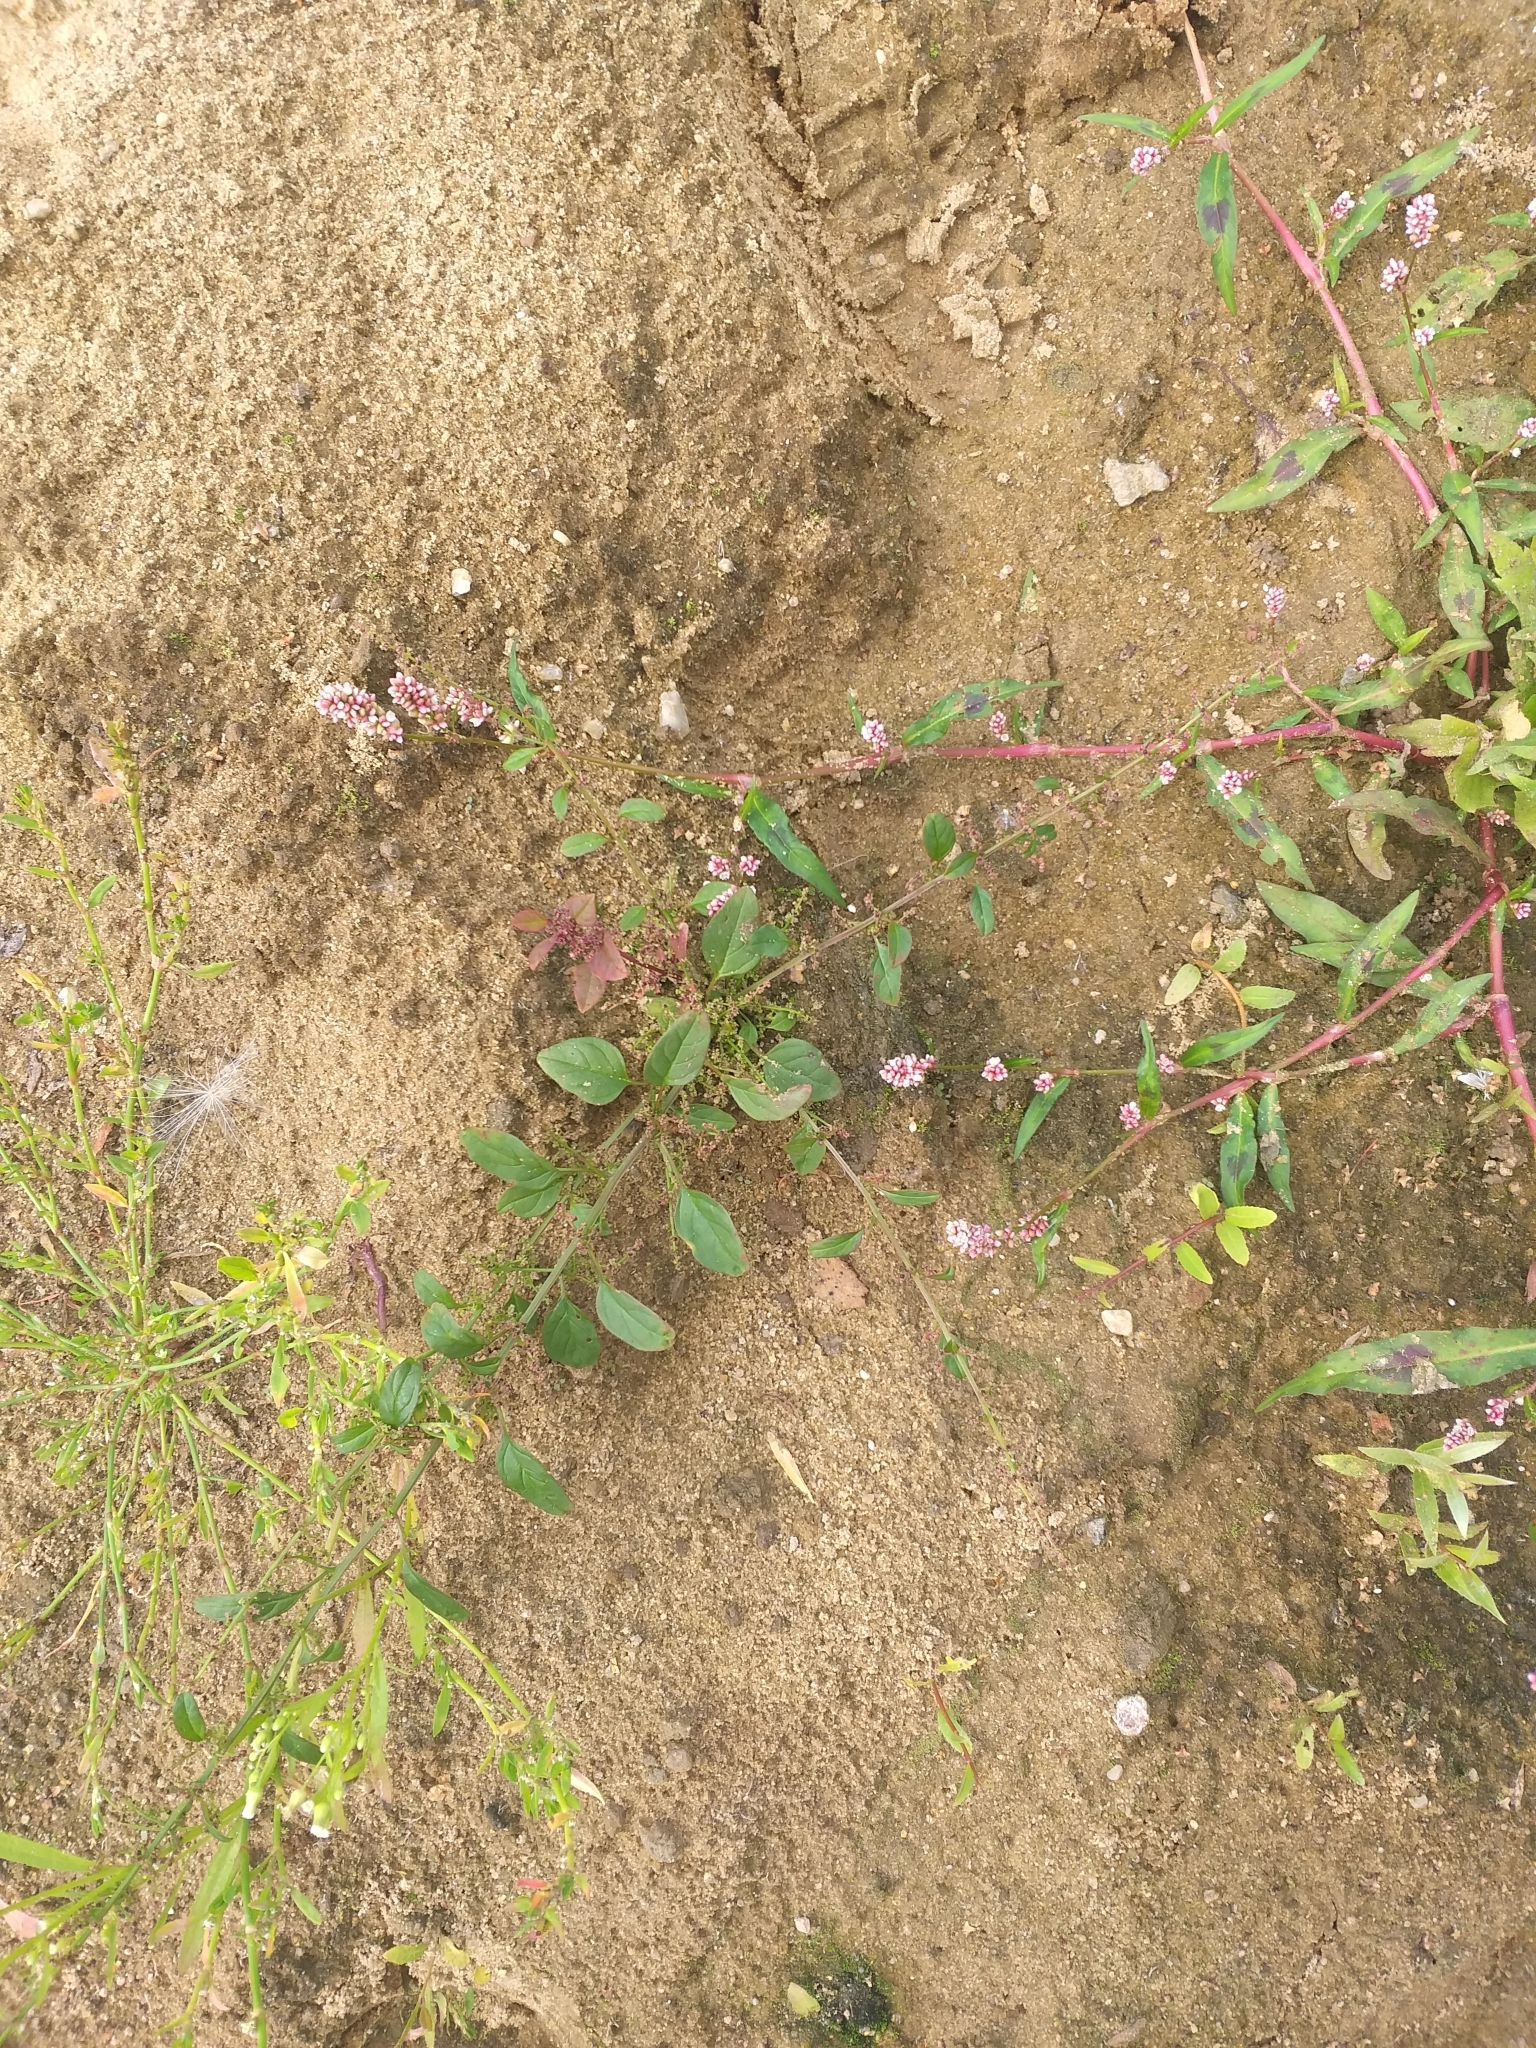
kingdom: Plantae
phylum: Tracheophyta
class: Magnoliopsida
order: Caryophyllales
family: Amaranthaceae
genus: Lipandra
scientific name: Lipandra polysperma
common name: Many-seed goosefoot
